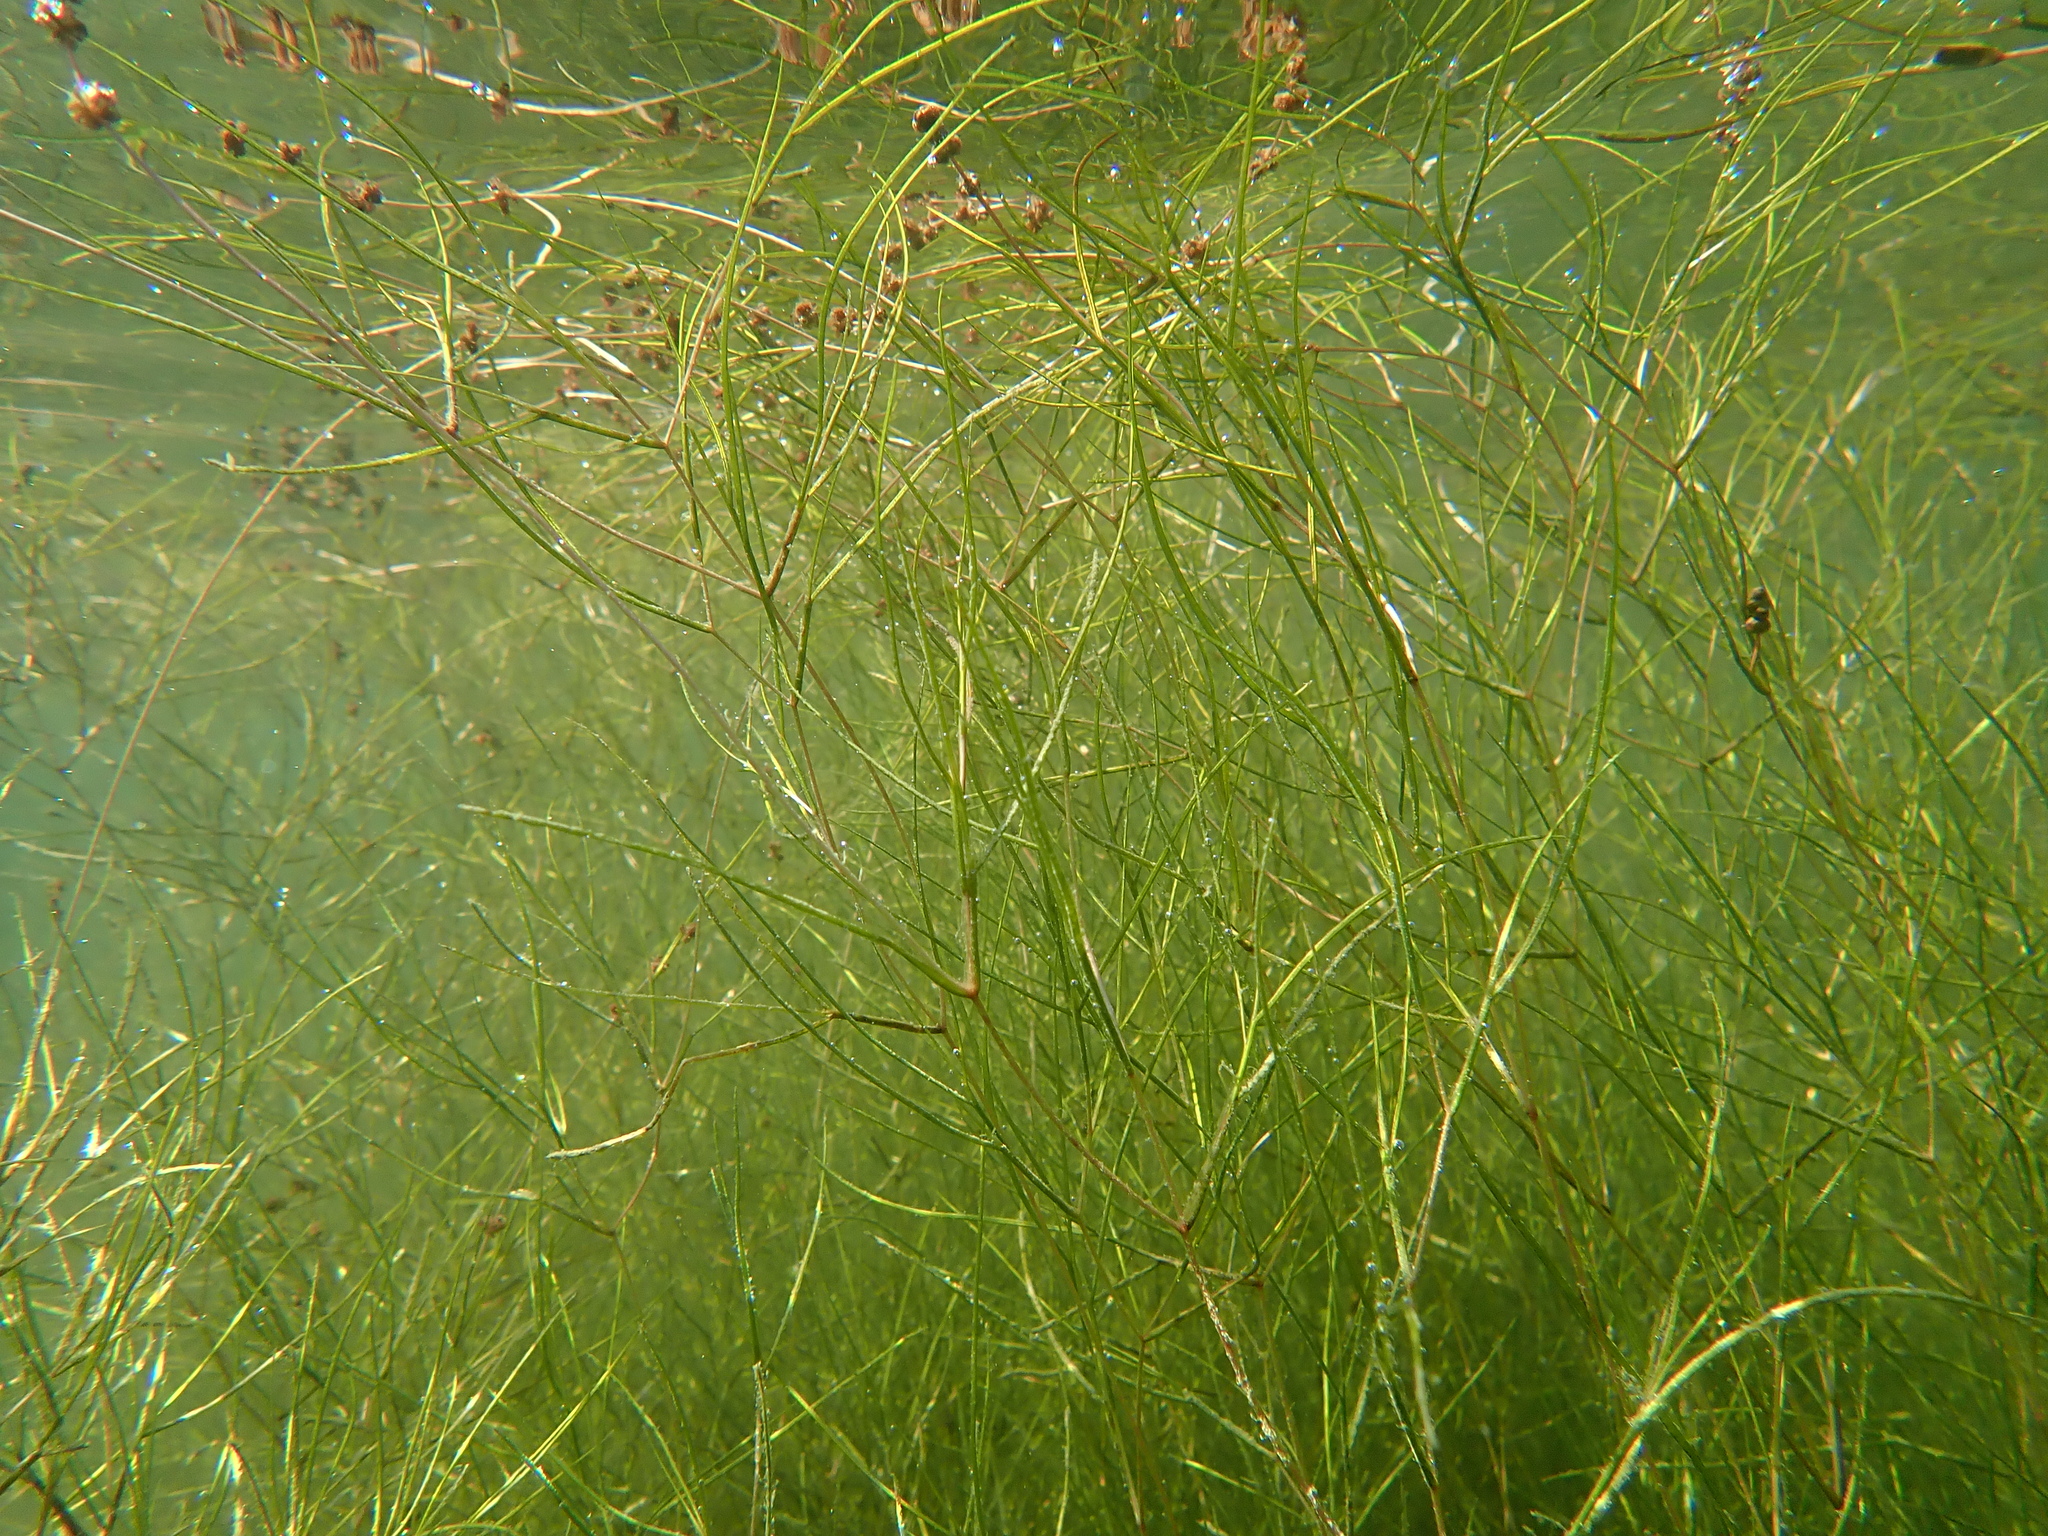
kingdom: Plantae
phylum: Tracheophyta
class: Liliopsida
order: Alismatales
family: Potamogetonaceae
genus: Stuckenia
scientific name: Stuckenia pectinata
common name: Sago pondweed
